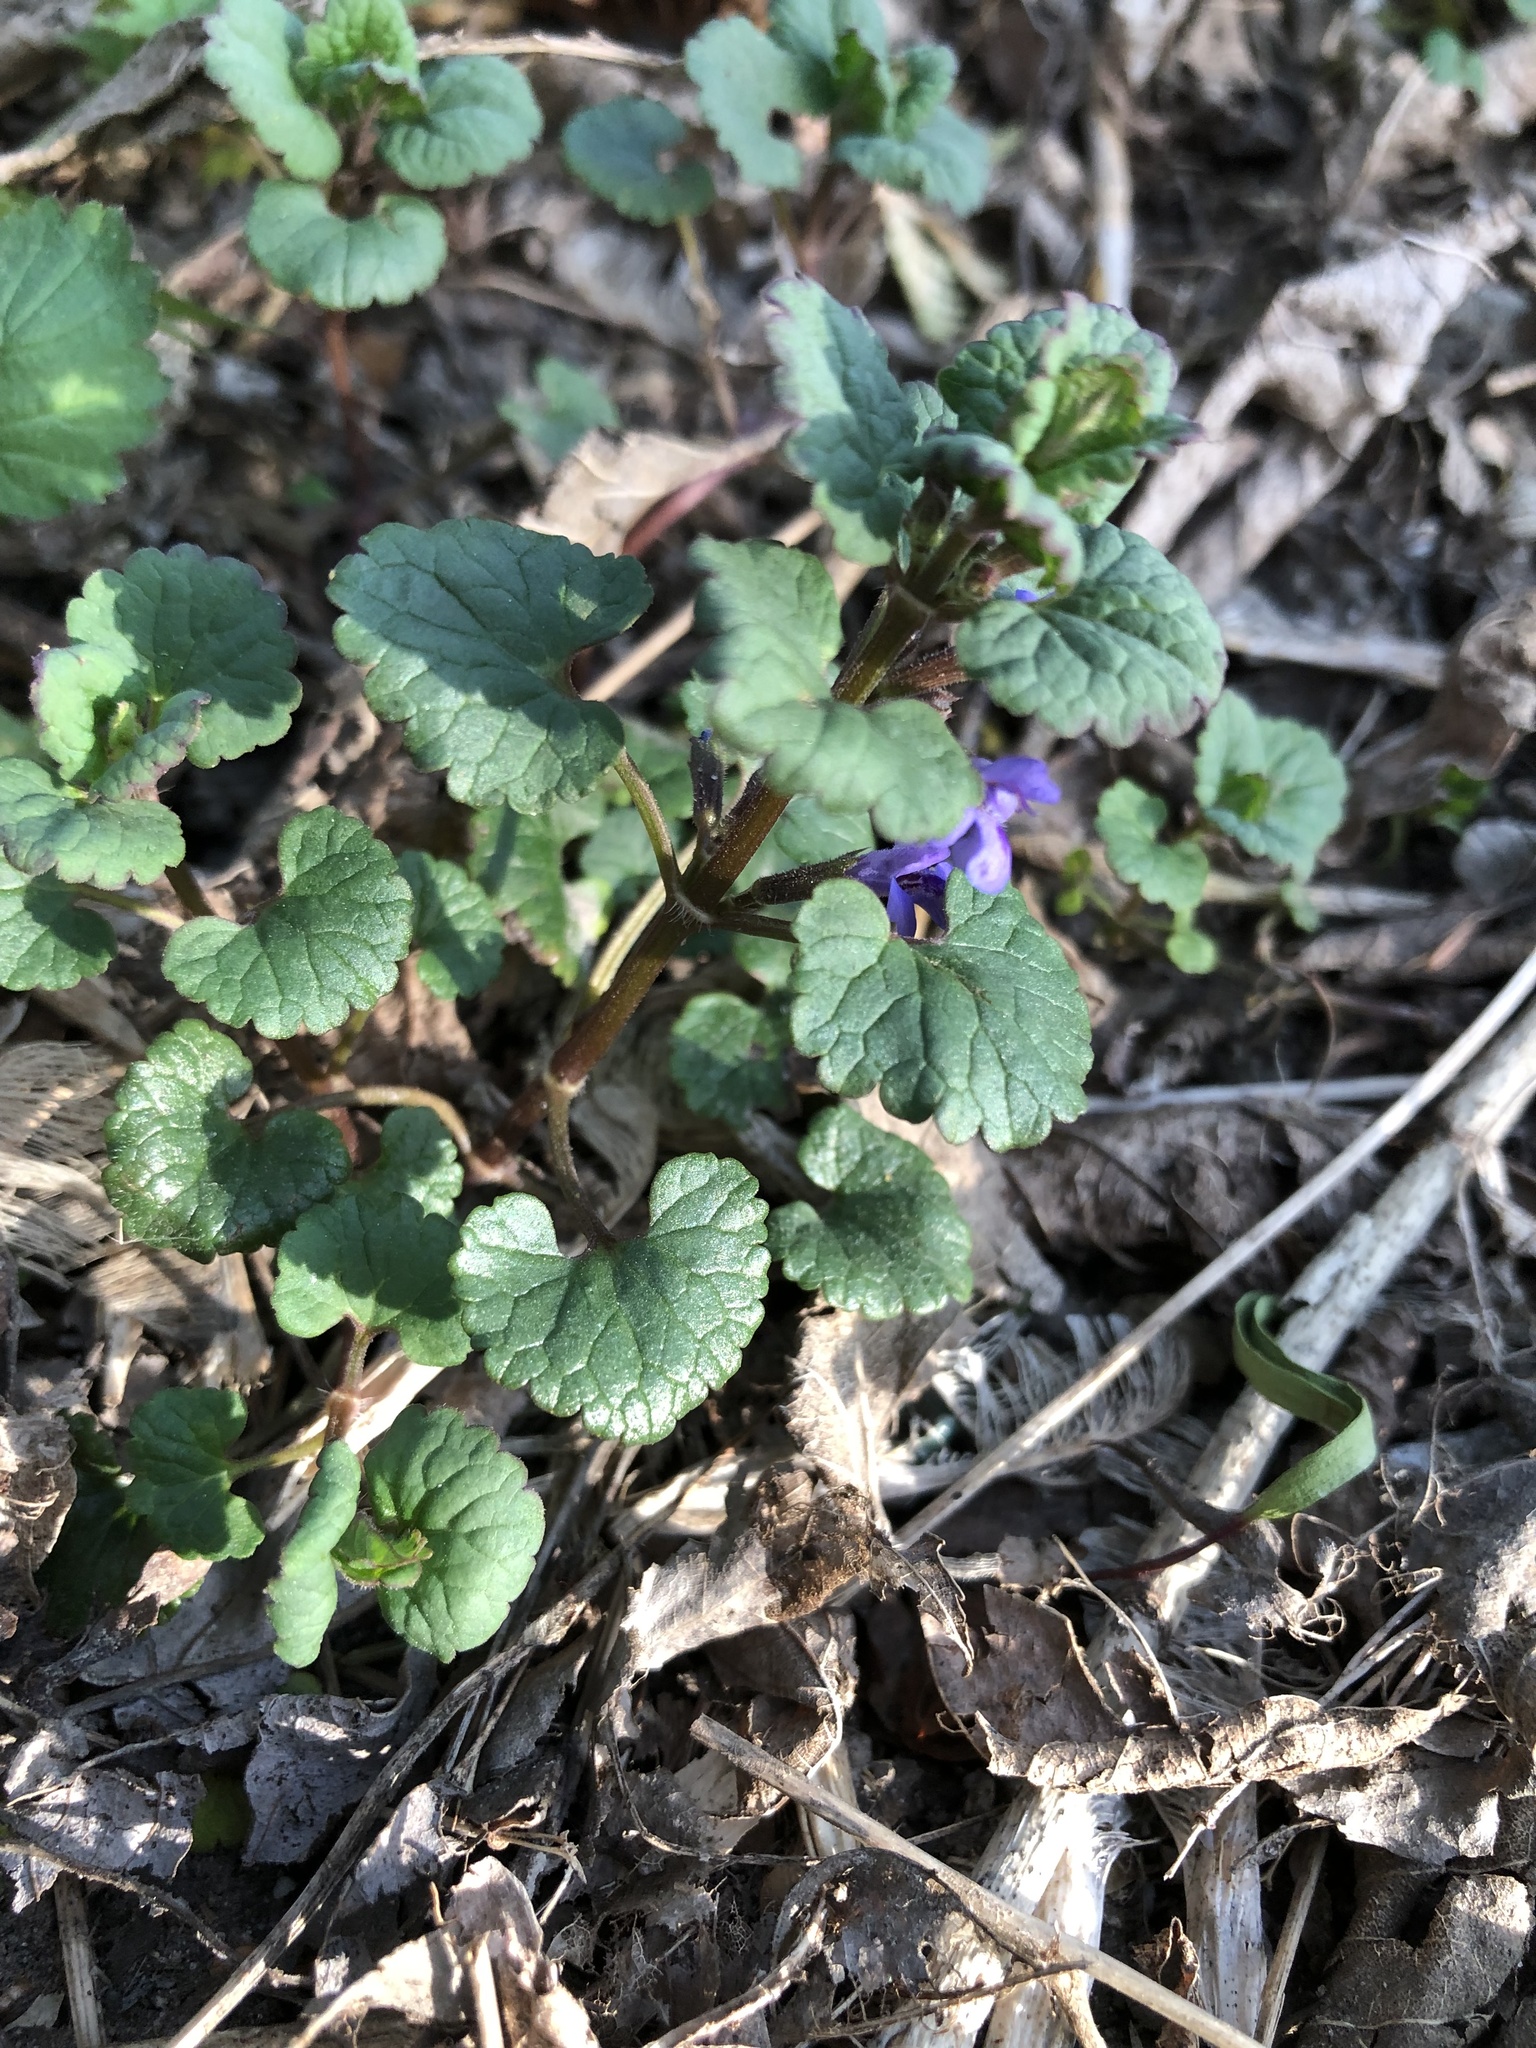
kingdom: Plantae
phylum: Tracheophyta
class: Magnoliopsida
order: Lamiales
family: Lamiaceae
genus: Glechoma
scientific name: Glechoma hederacea
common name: Ground ivy
